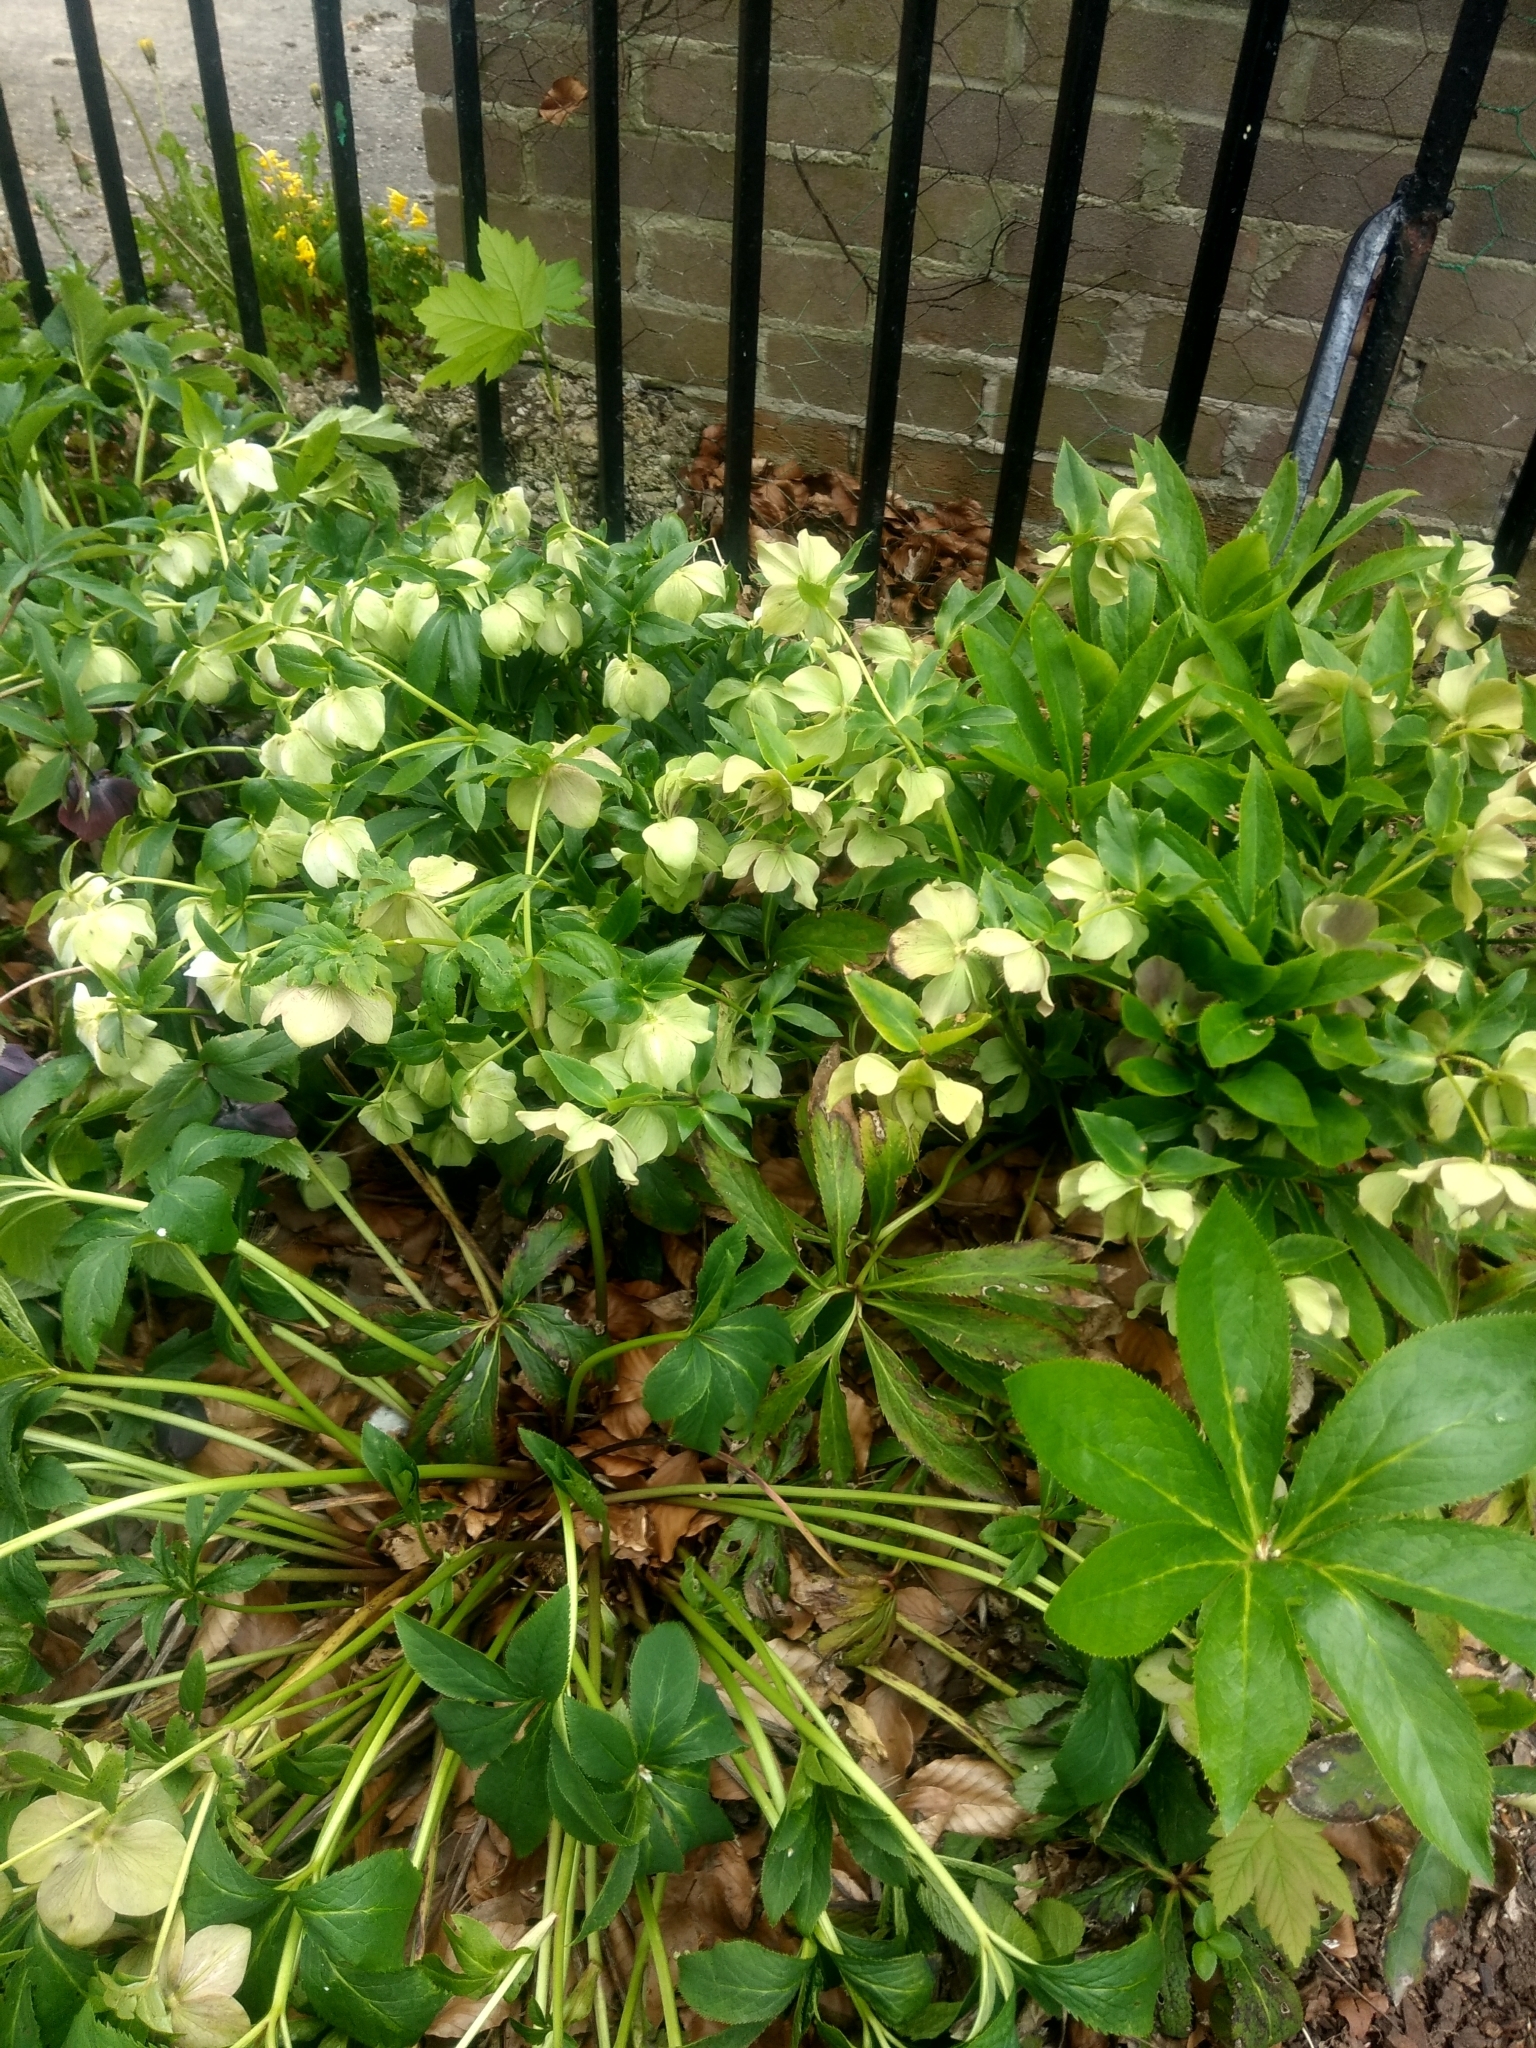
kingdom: Plantae
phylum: Tracheophyta
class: Magnoliopsida
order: Ranunculales
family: Ranunculaceae
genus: Helleborus
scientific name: Helleborus orientalis
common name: Lenten-rose
